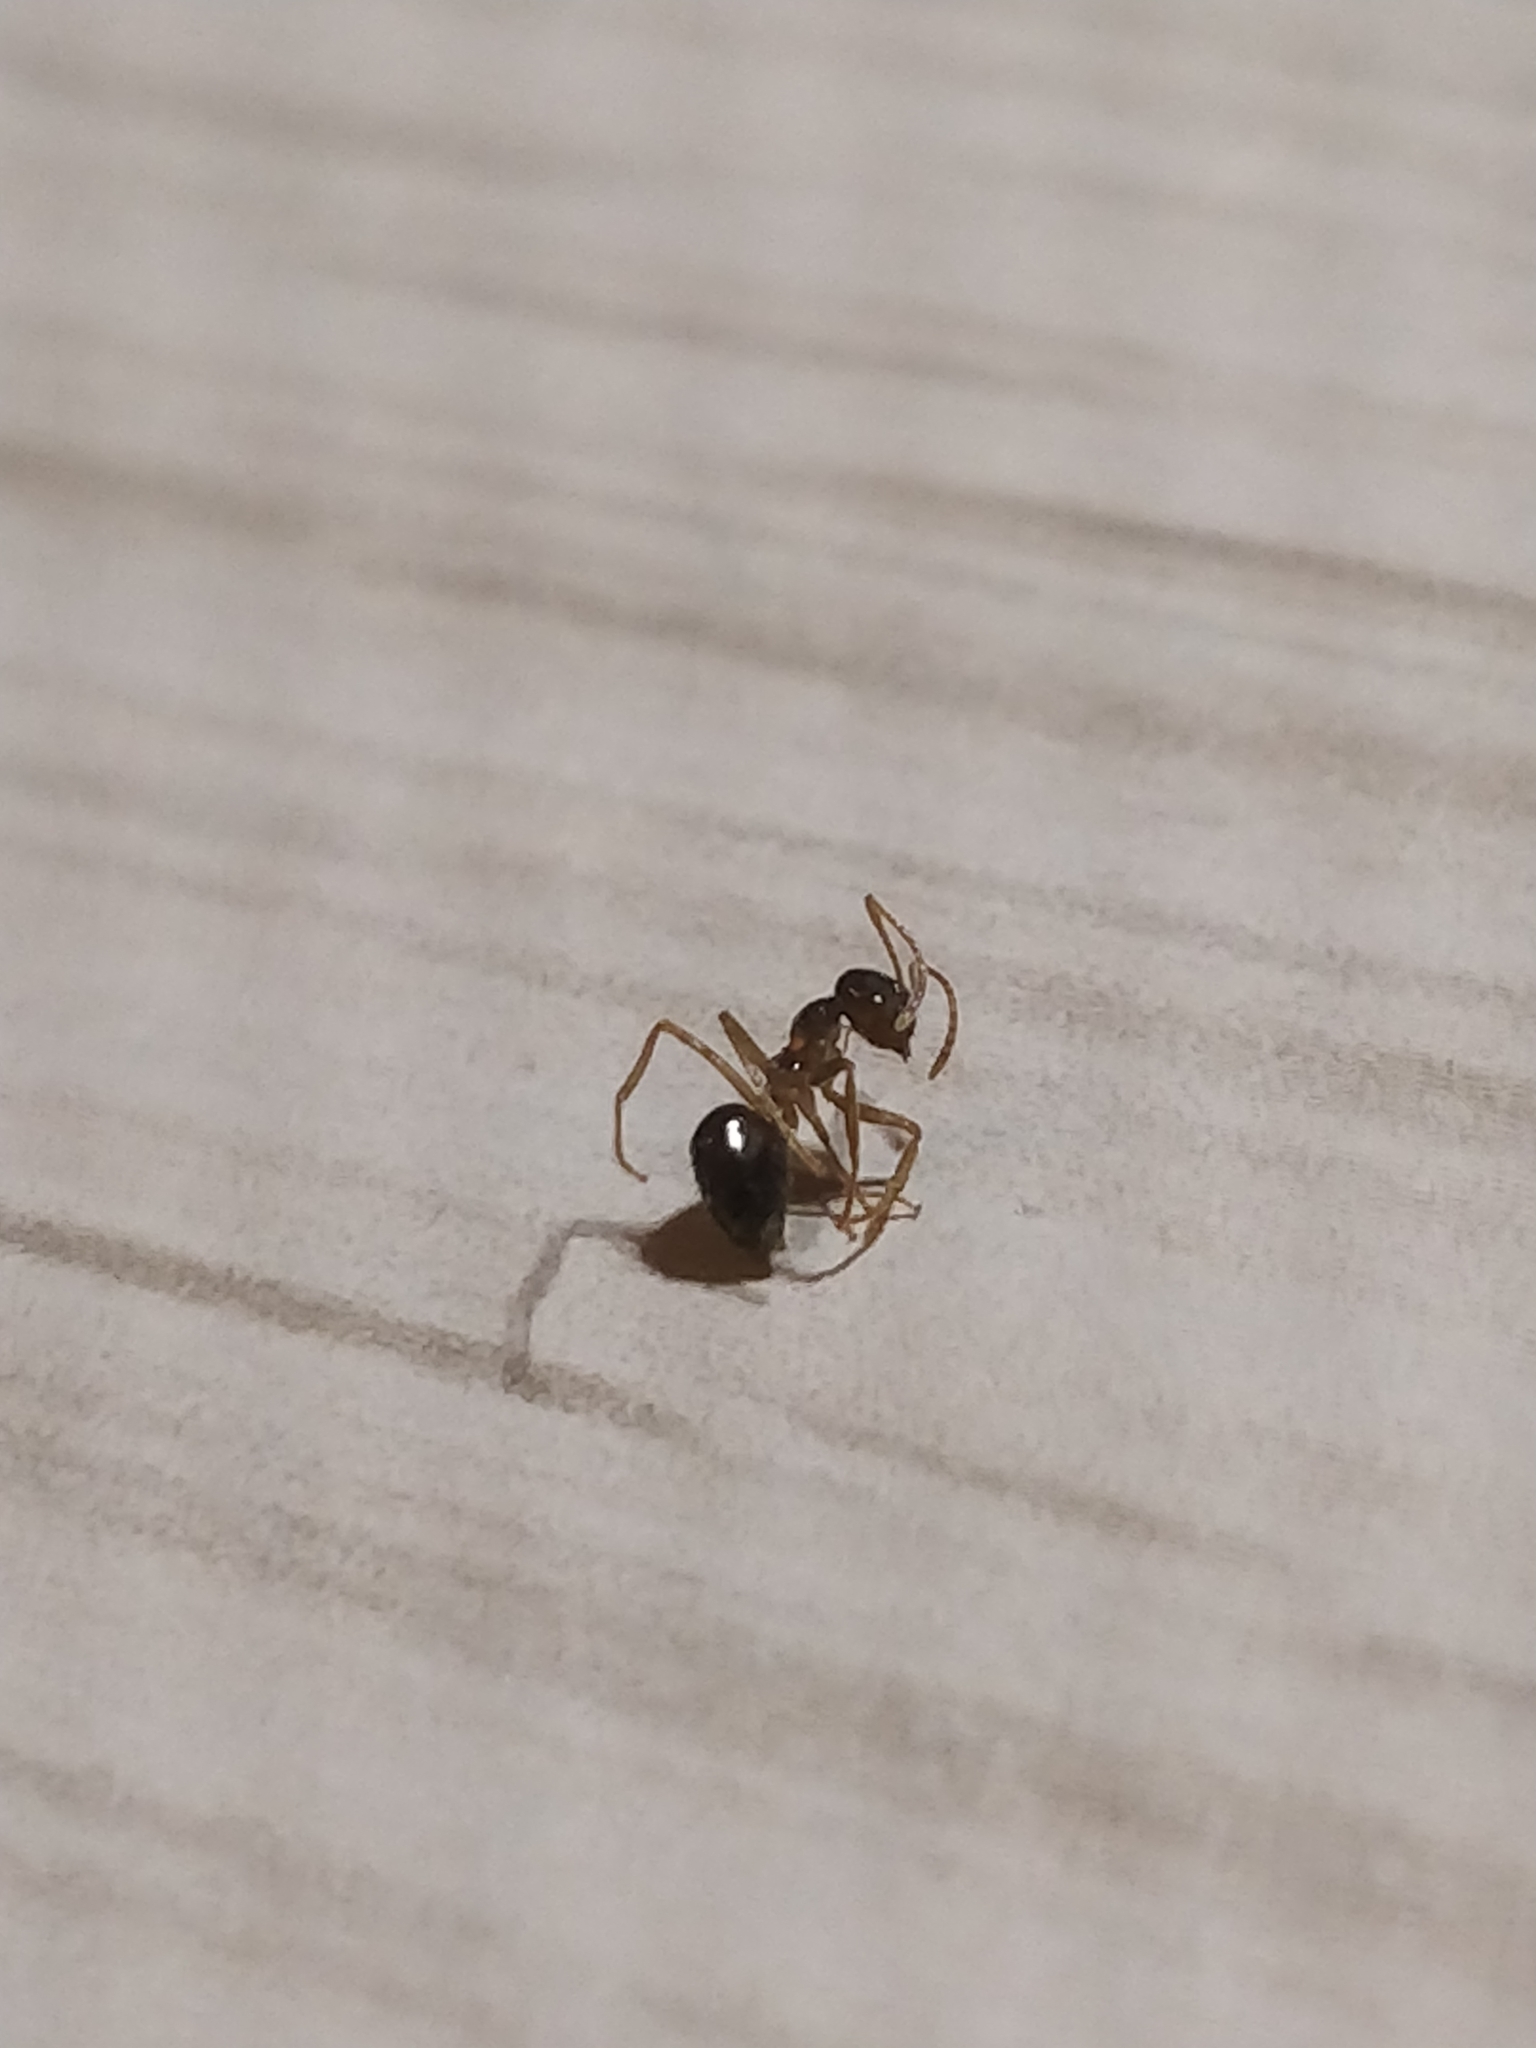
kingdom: Animalia
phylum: Arthropoda
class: Insecta
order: Hymenoptera
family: Formicidae
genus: Prenolepis
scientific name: Prenolepis imparis
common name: Small honey ant
